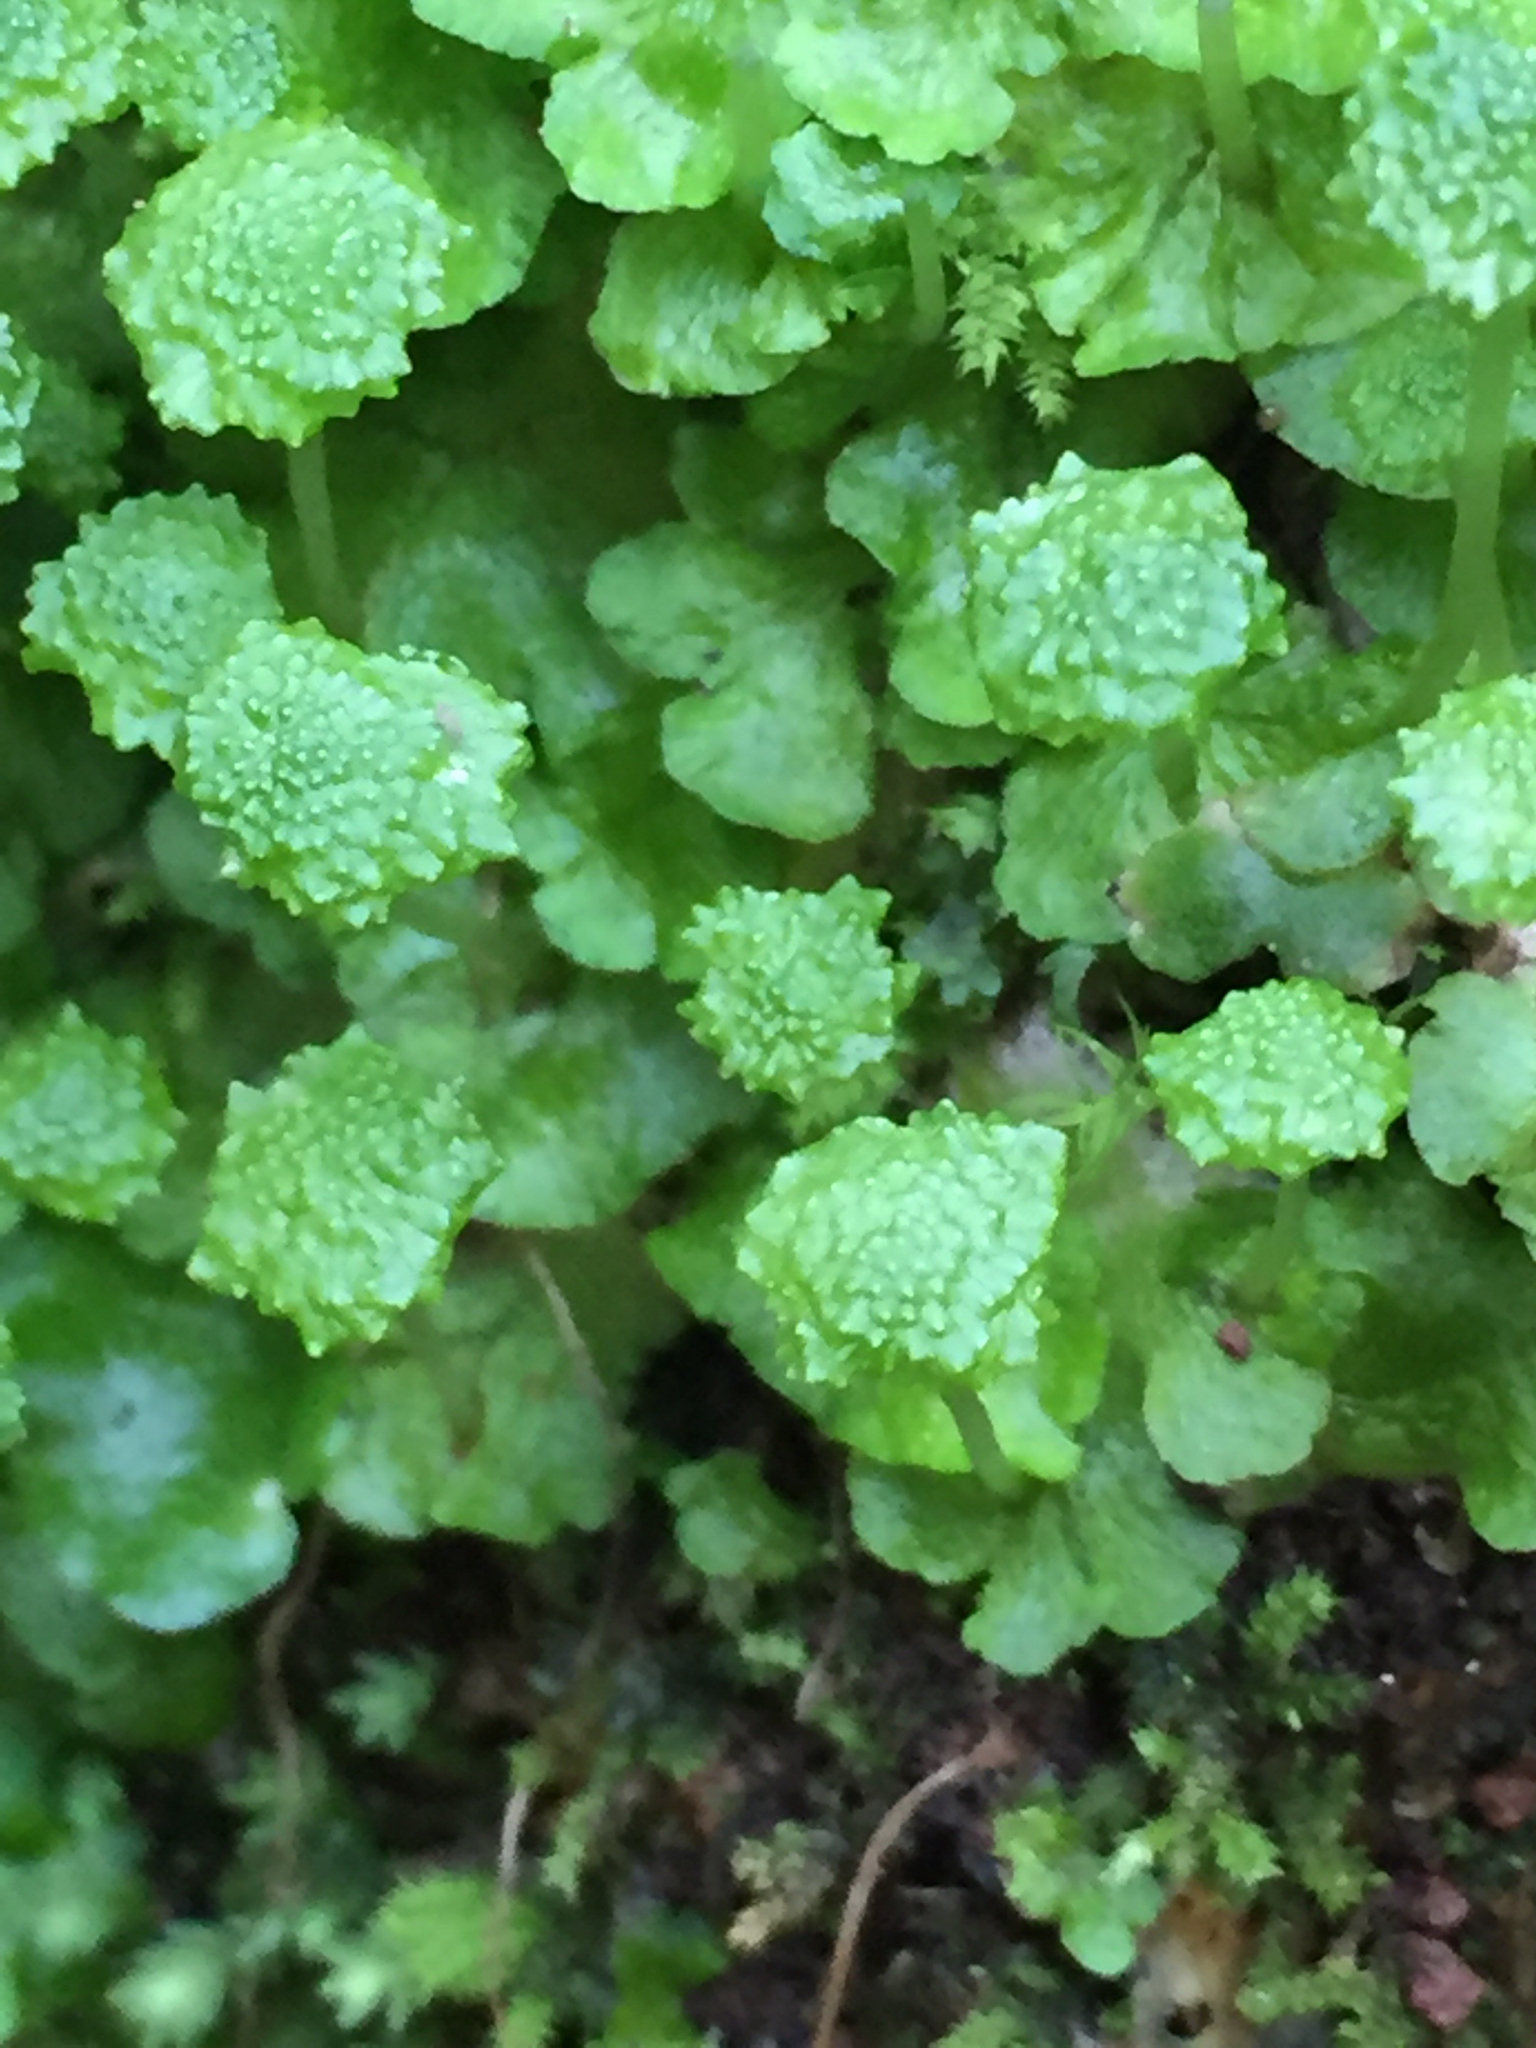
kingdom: Plantae
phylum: Marchantiophyta
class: Marchantiopsida
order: Marchantiales
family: Aytoniaceae
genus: Cryptomitrium
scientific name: Cryptomitrium tenerum
